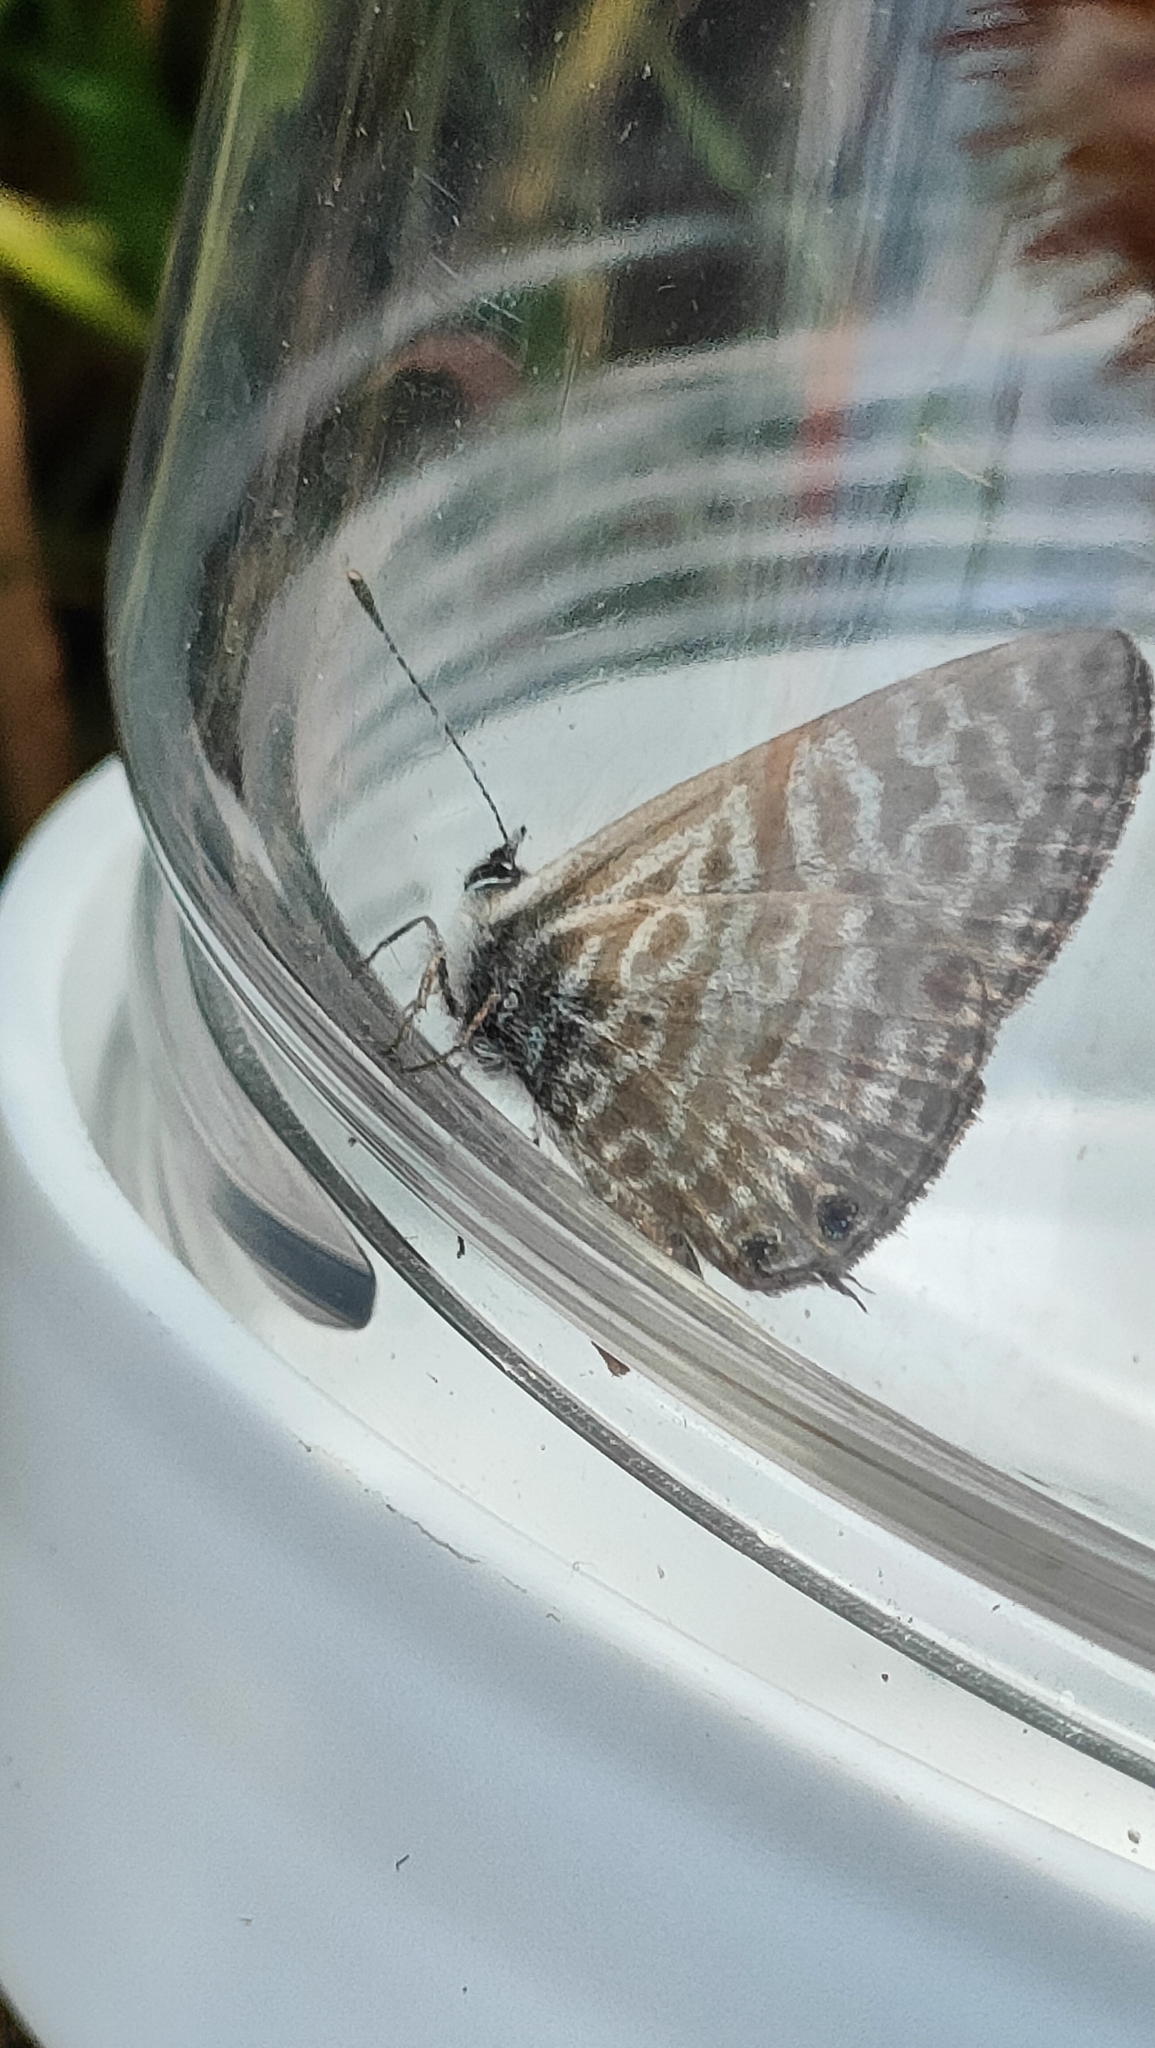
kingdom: Animalia
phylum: Arthropoda
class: Insecta
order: Lepidoptera
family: Lycaenidae
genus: Leptotes
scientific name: Leptotes pirithous
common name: Lang's short-tailed blue
